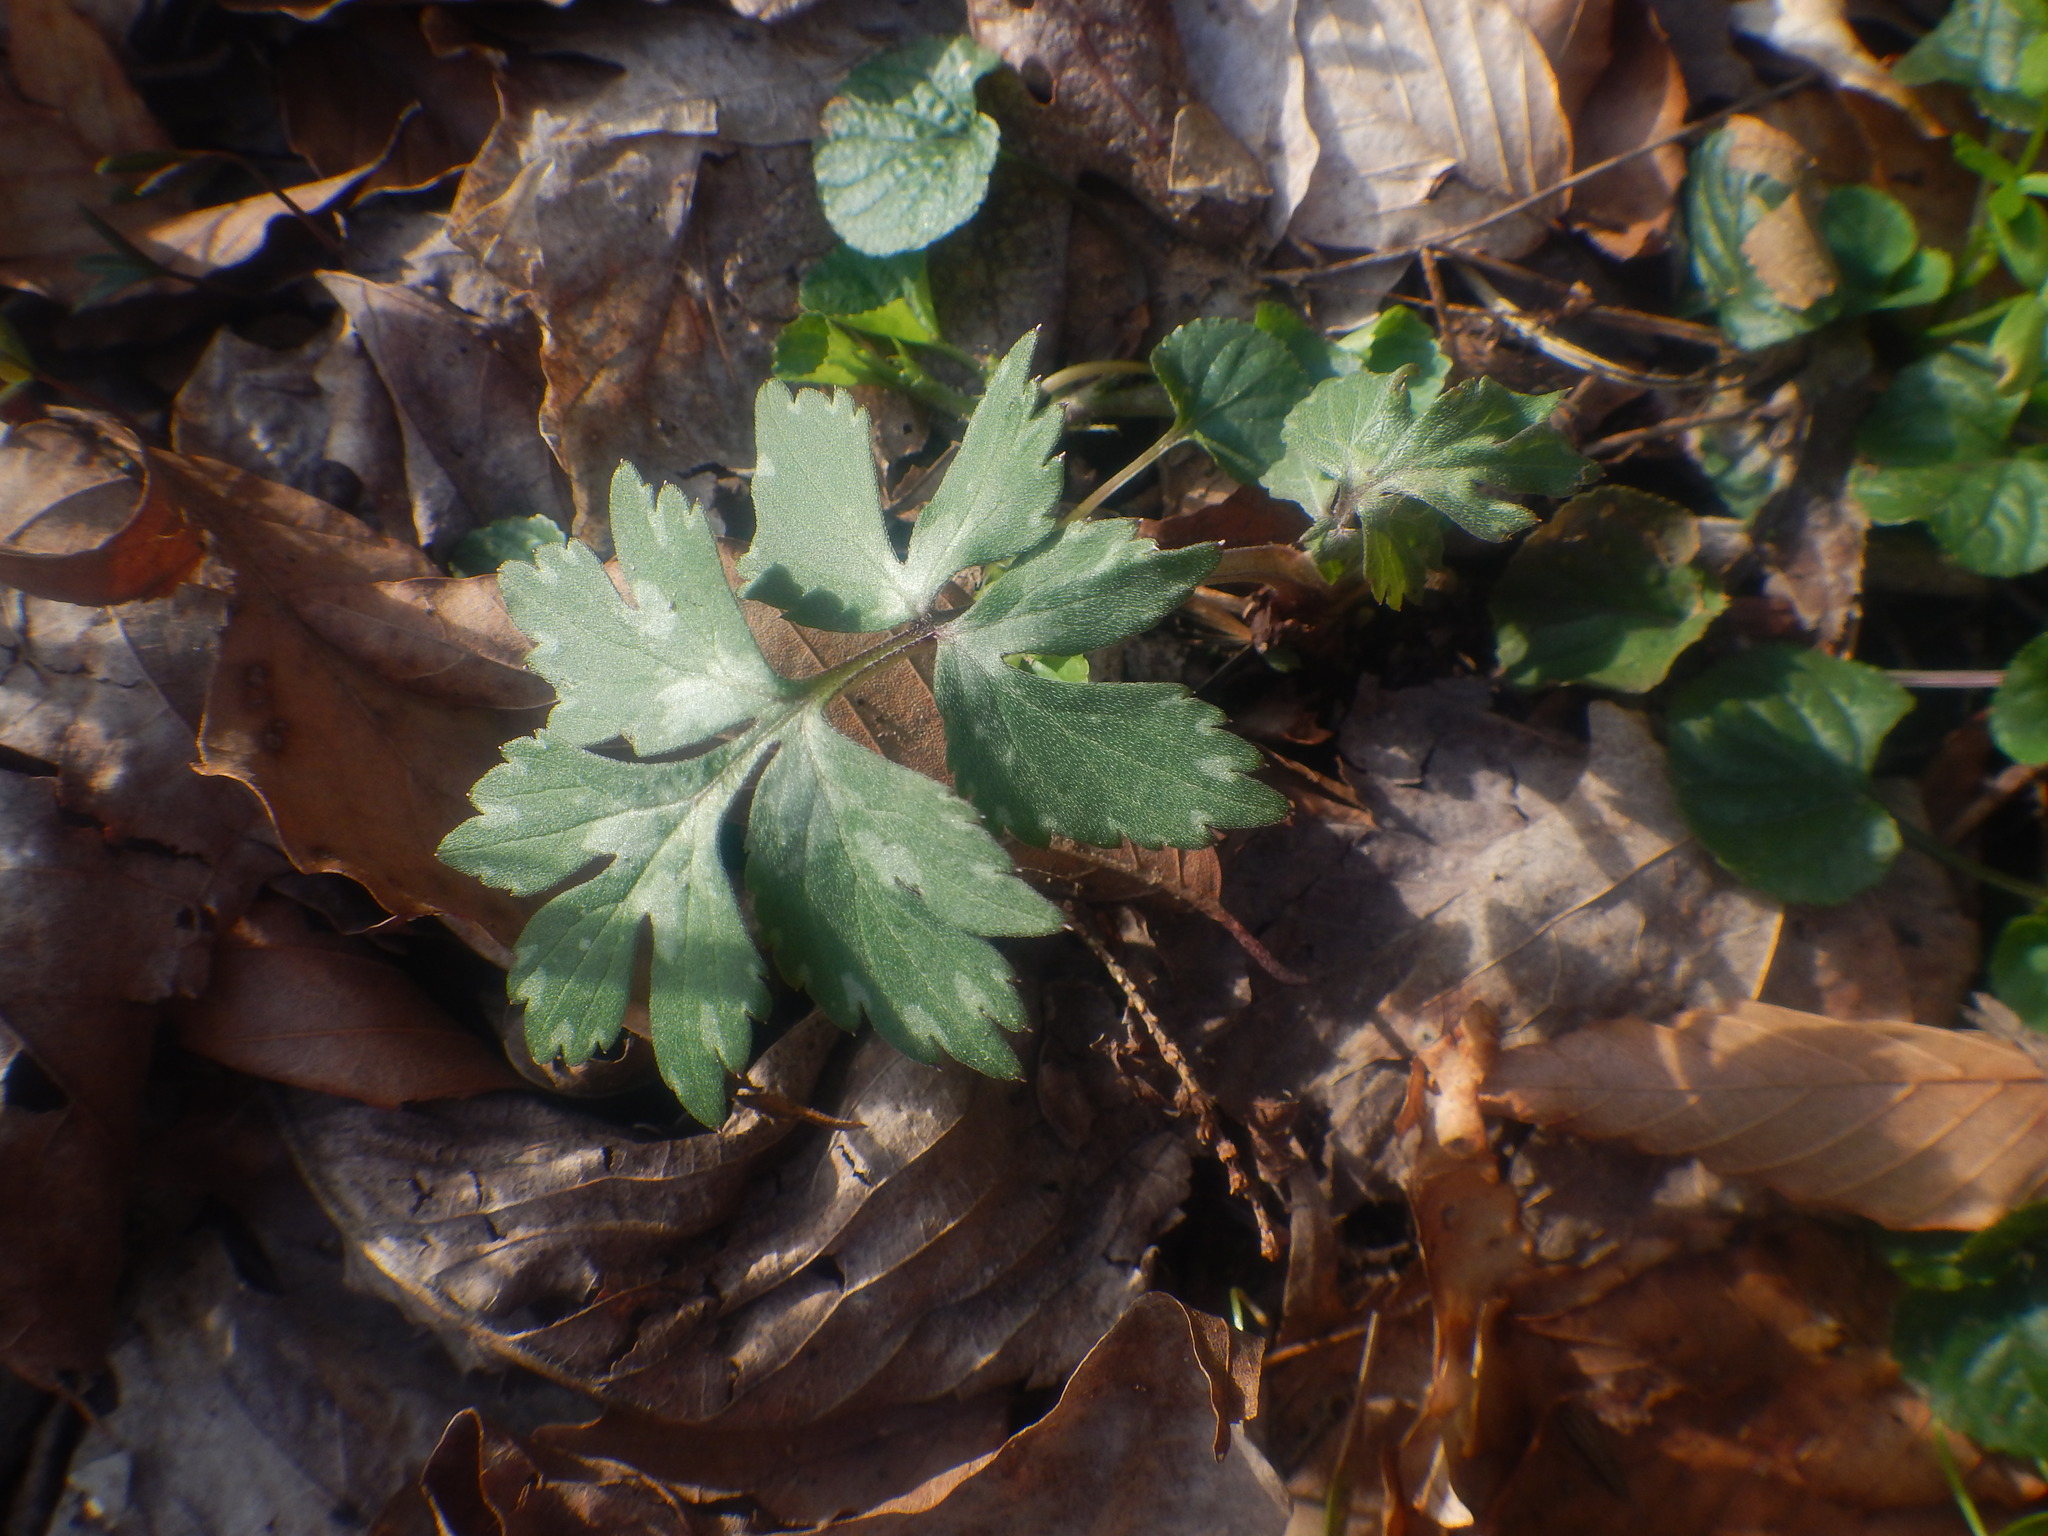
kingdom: Plantae
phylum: Tracheophyta
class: Magnoliopsida
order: Boraginales
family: Hydrophyllaceae
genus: Hydrophyllum
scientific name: Hydrophyllum virginianum
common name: Virginia waterleaf
